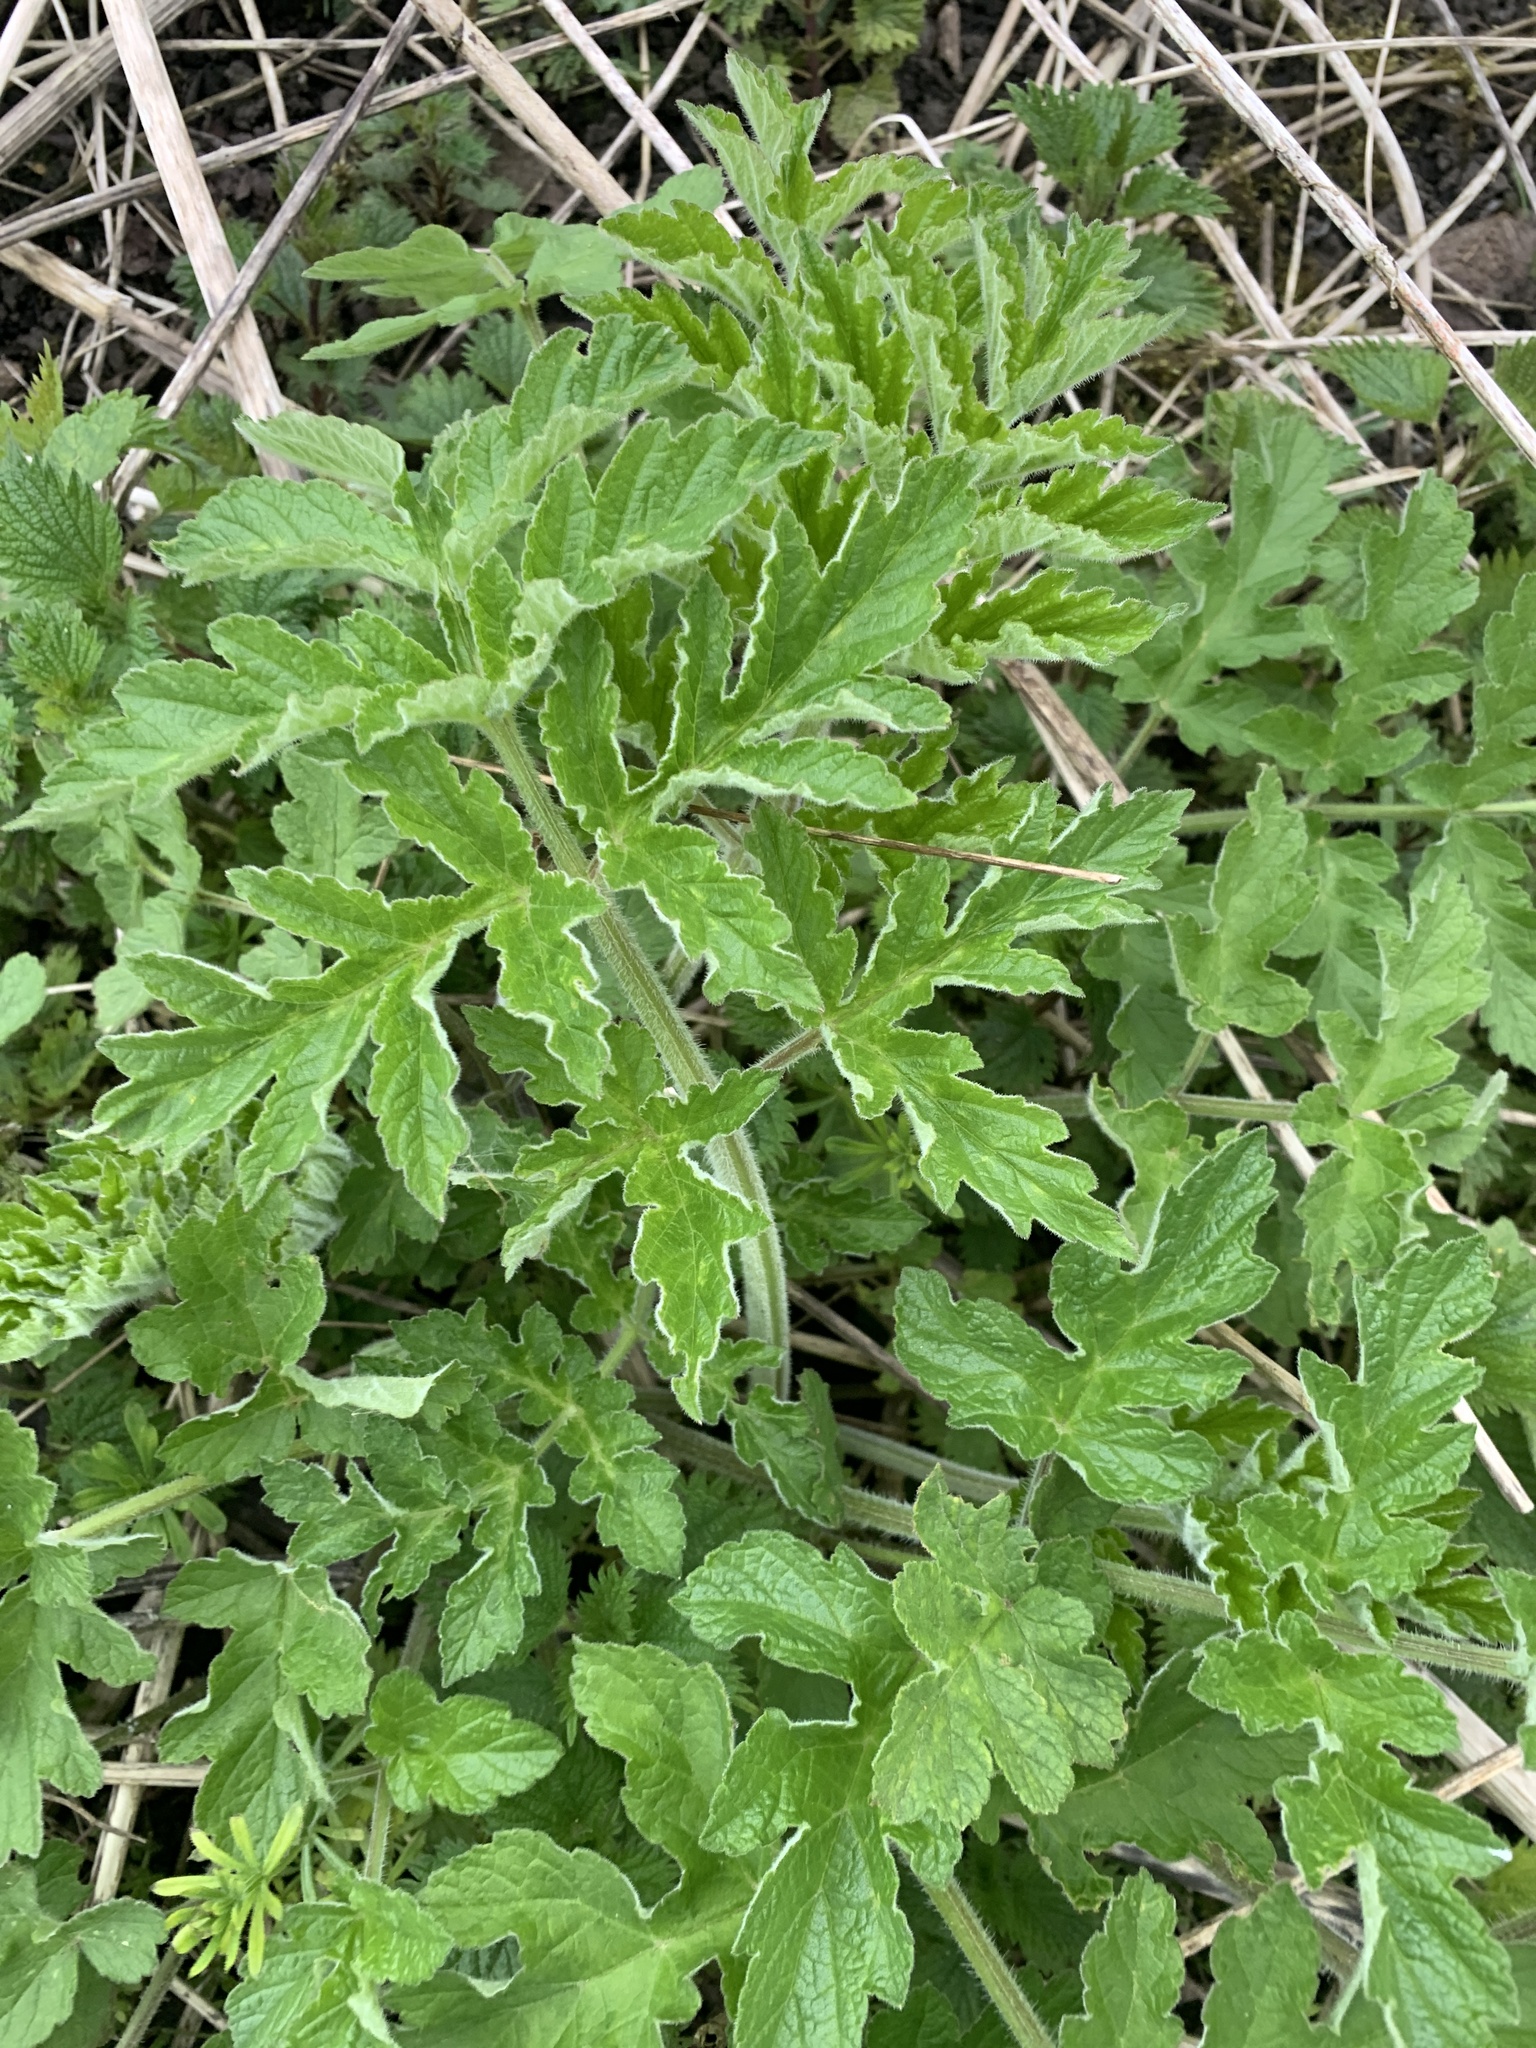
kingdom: Plantae
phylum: Tracheophyta
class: Magnoliopsida
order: Apiales
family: Apiaceae
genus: Heracleum
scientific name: Heracleum sphondylium
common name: Hogweed
